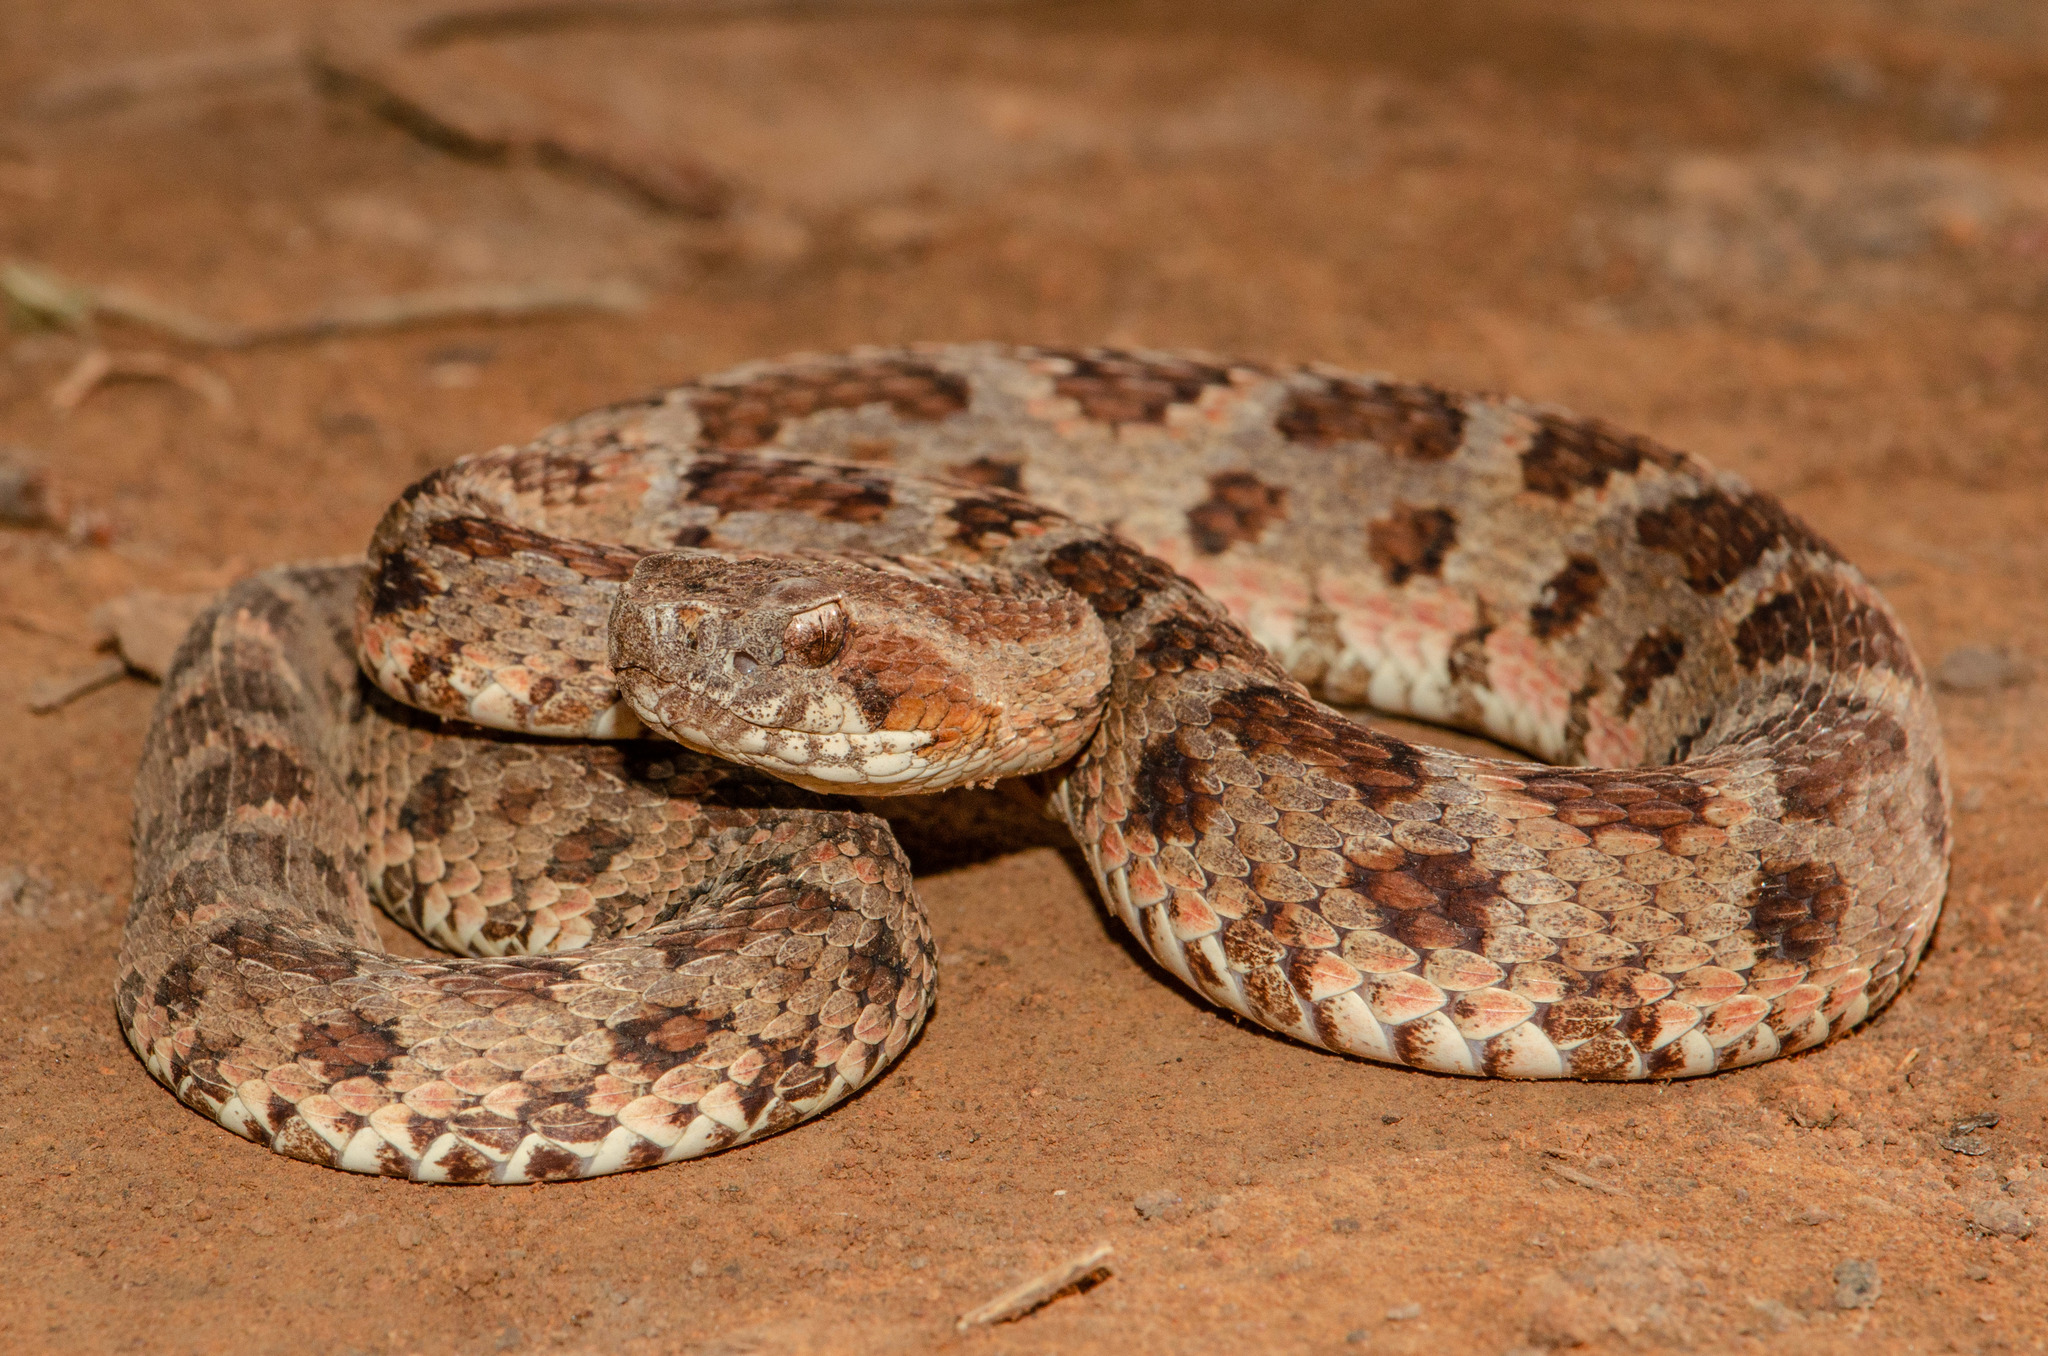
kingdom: Animalia
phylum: Chordata
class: Squamata
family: Viperidae
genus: Bothrops
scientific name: Bothrops erythromelas
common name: Caatinga lancehead
